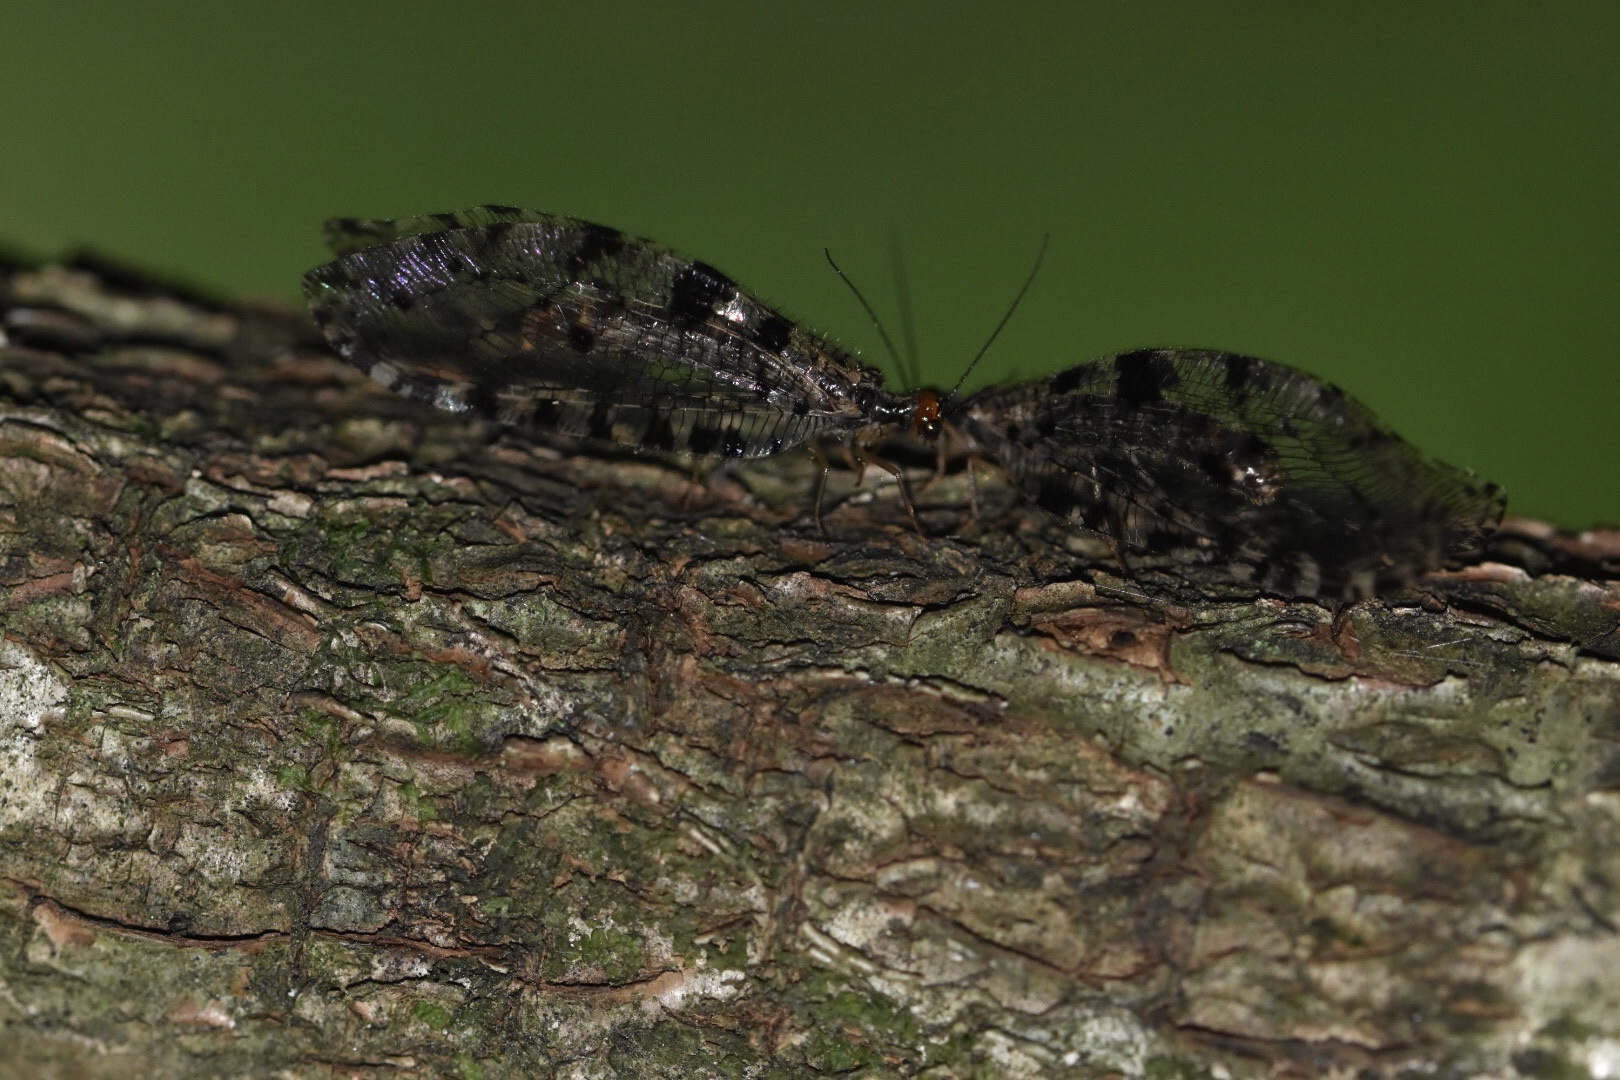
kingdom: Animalia
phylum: Arthropoda
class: Insecta
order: Neuroptera
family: Osmylidae
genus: Osmylus
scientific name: Osmylus fulvicephalus
